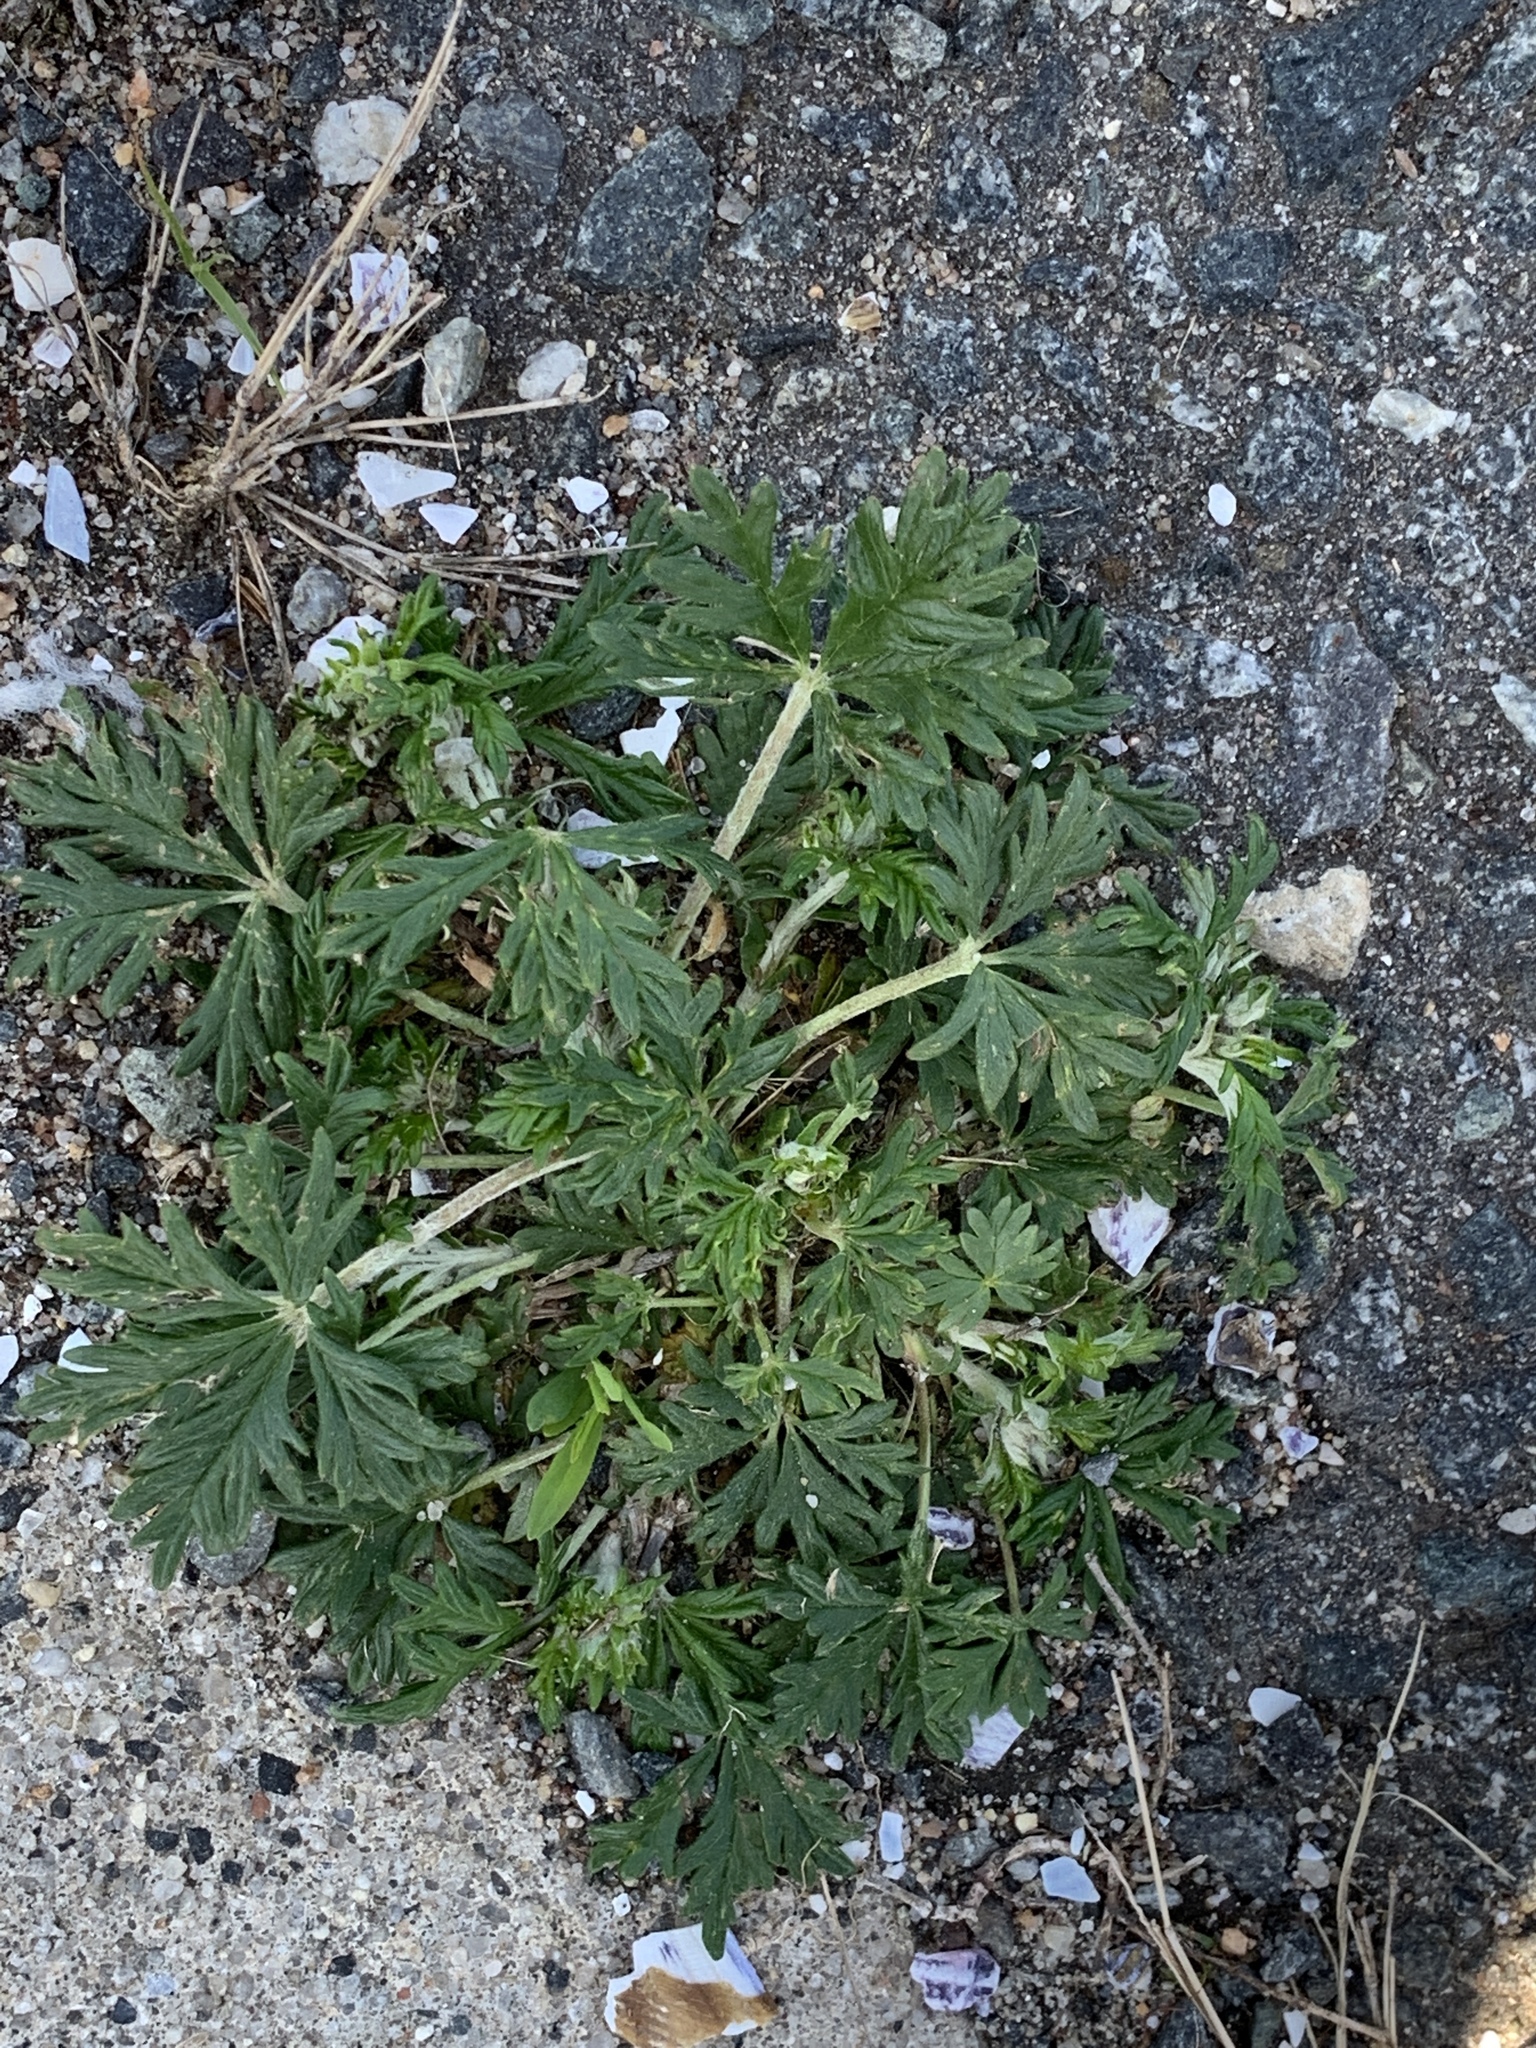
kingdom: Plantae
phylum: Tracheophyta
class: Magnoliopsida
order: Rosales
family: Rosaceae
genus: Potentilla
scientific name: Potentilla argentea
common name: Hoary cinquefoil
